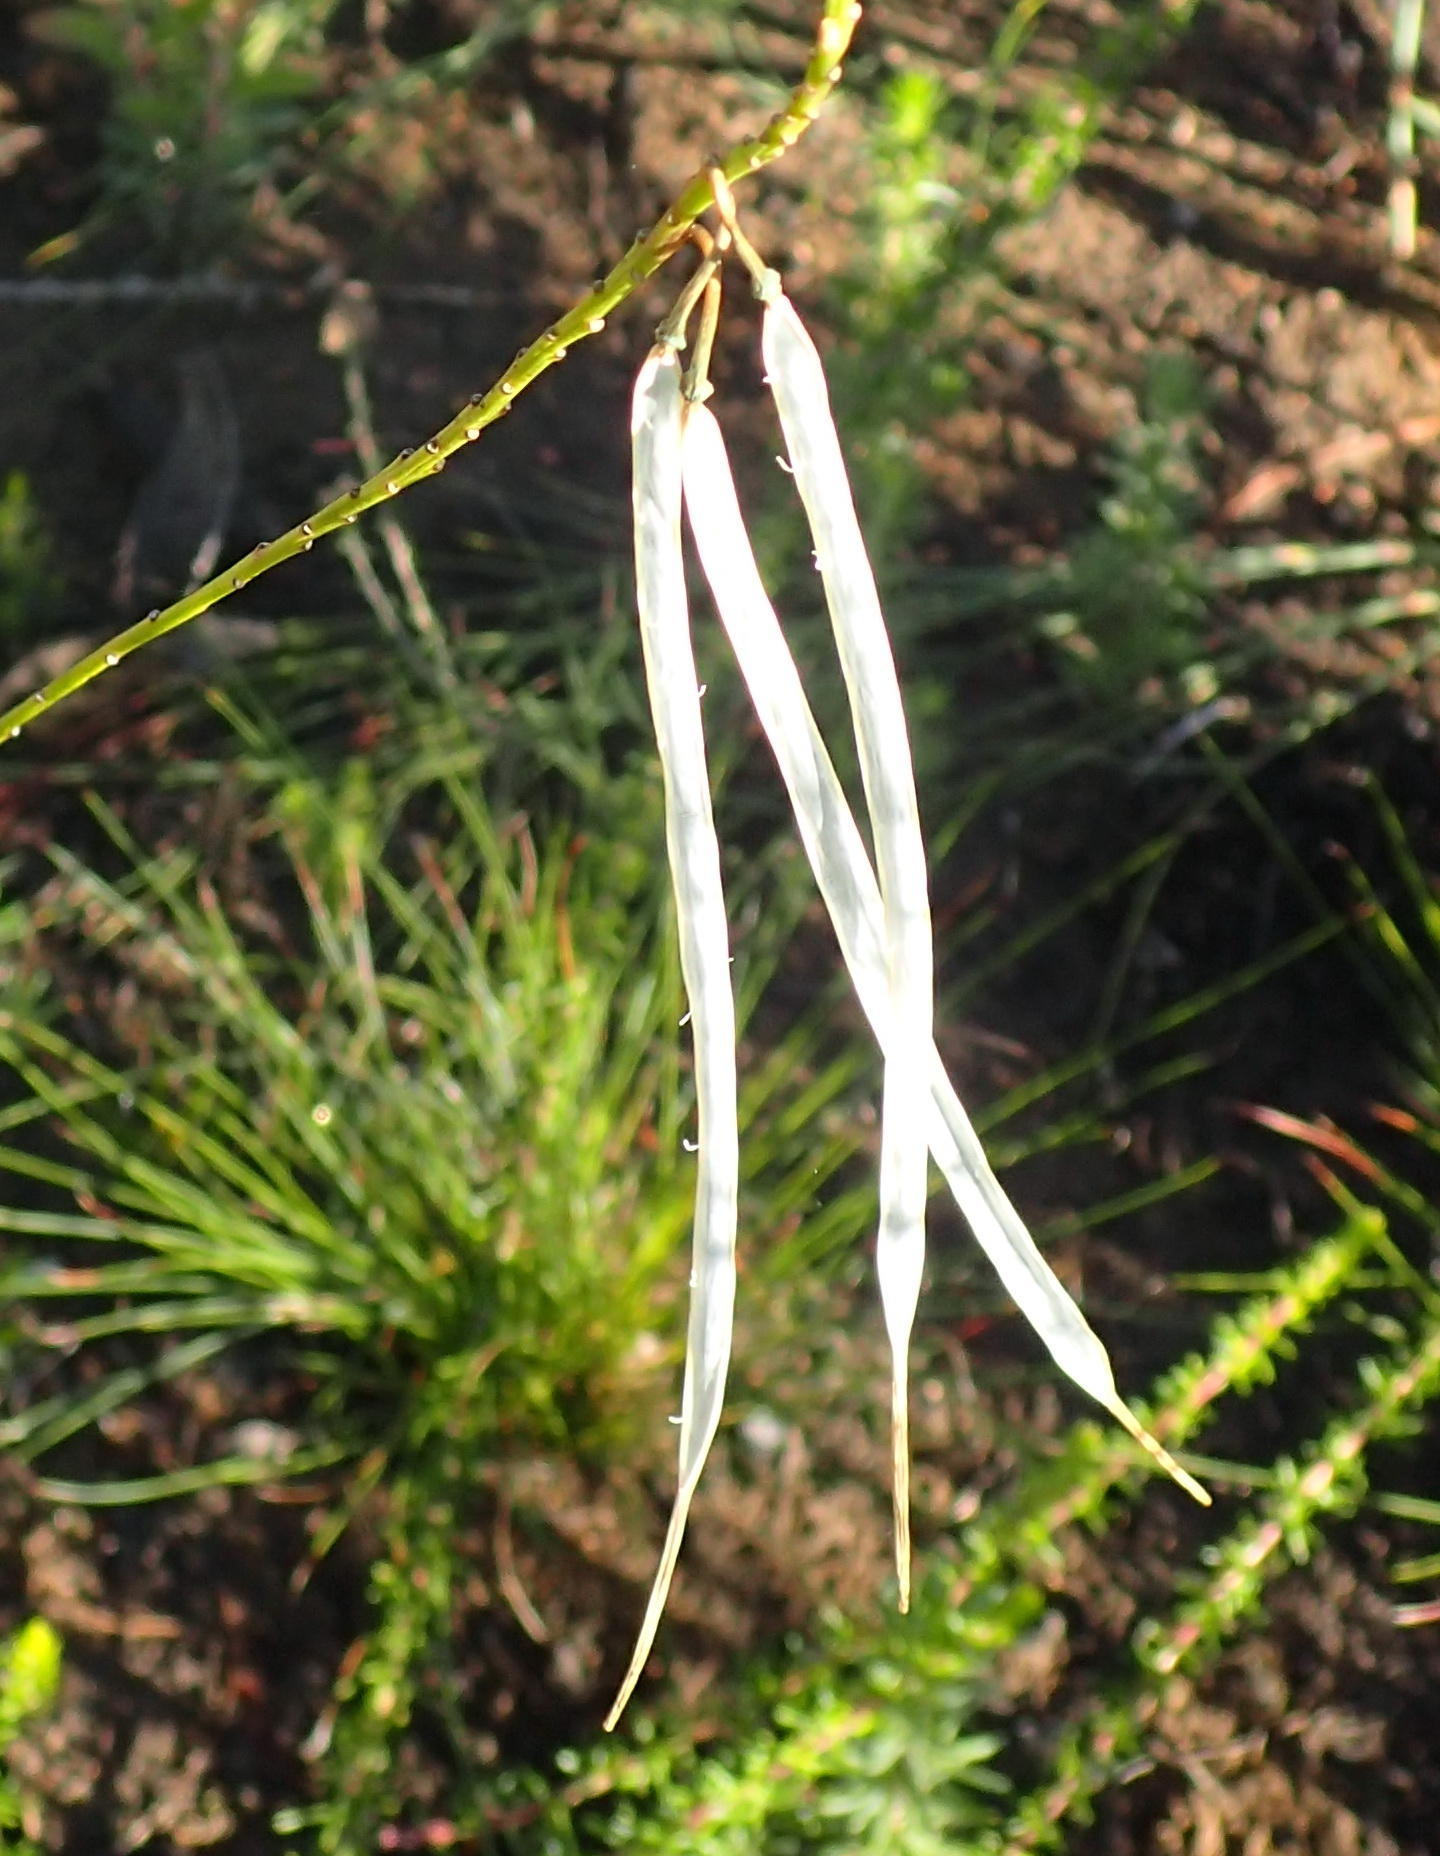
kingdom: Plantae
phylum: Tracheophyta
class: Magnoliopsida
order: Brassicales
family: Brassicaceae
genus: Heliophila
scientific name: Heliophila elongata
